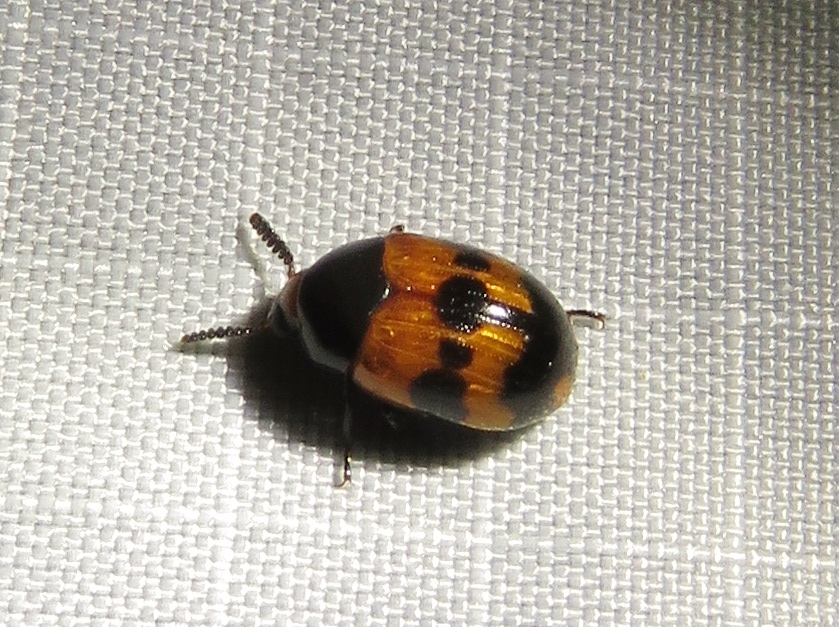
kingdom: Animalia
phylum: Arthropoda
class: Insecta
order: Coleoptera
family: Tenebrionidae
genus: Diaperis
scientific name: Diaperis nigronotata
